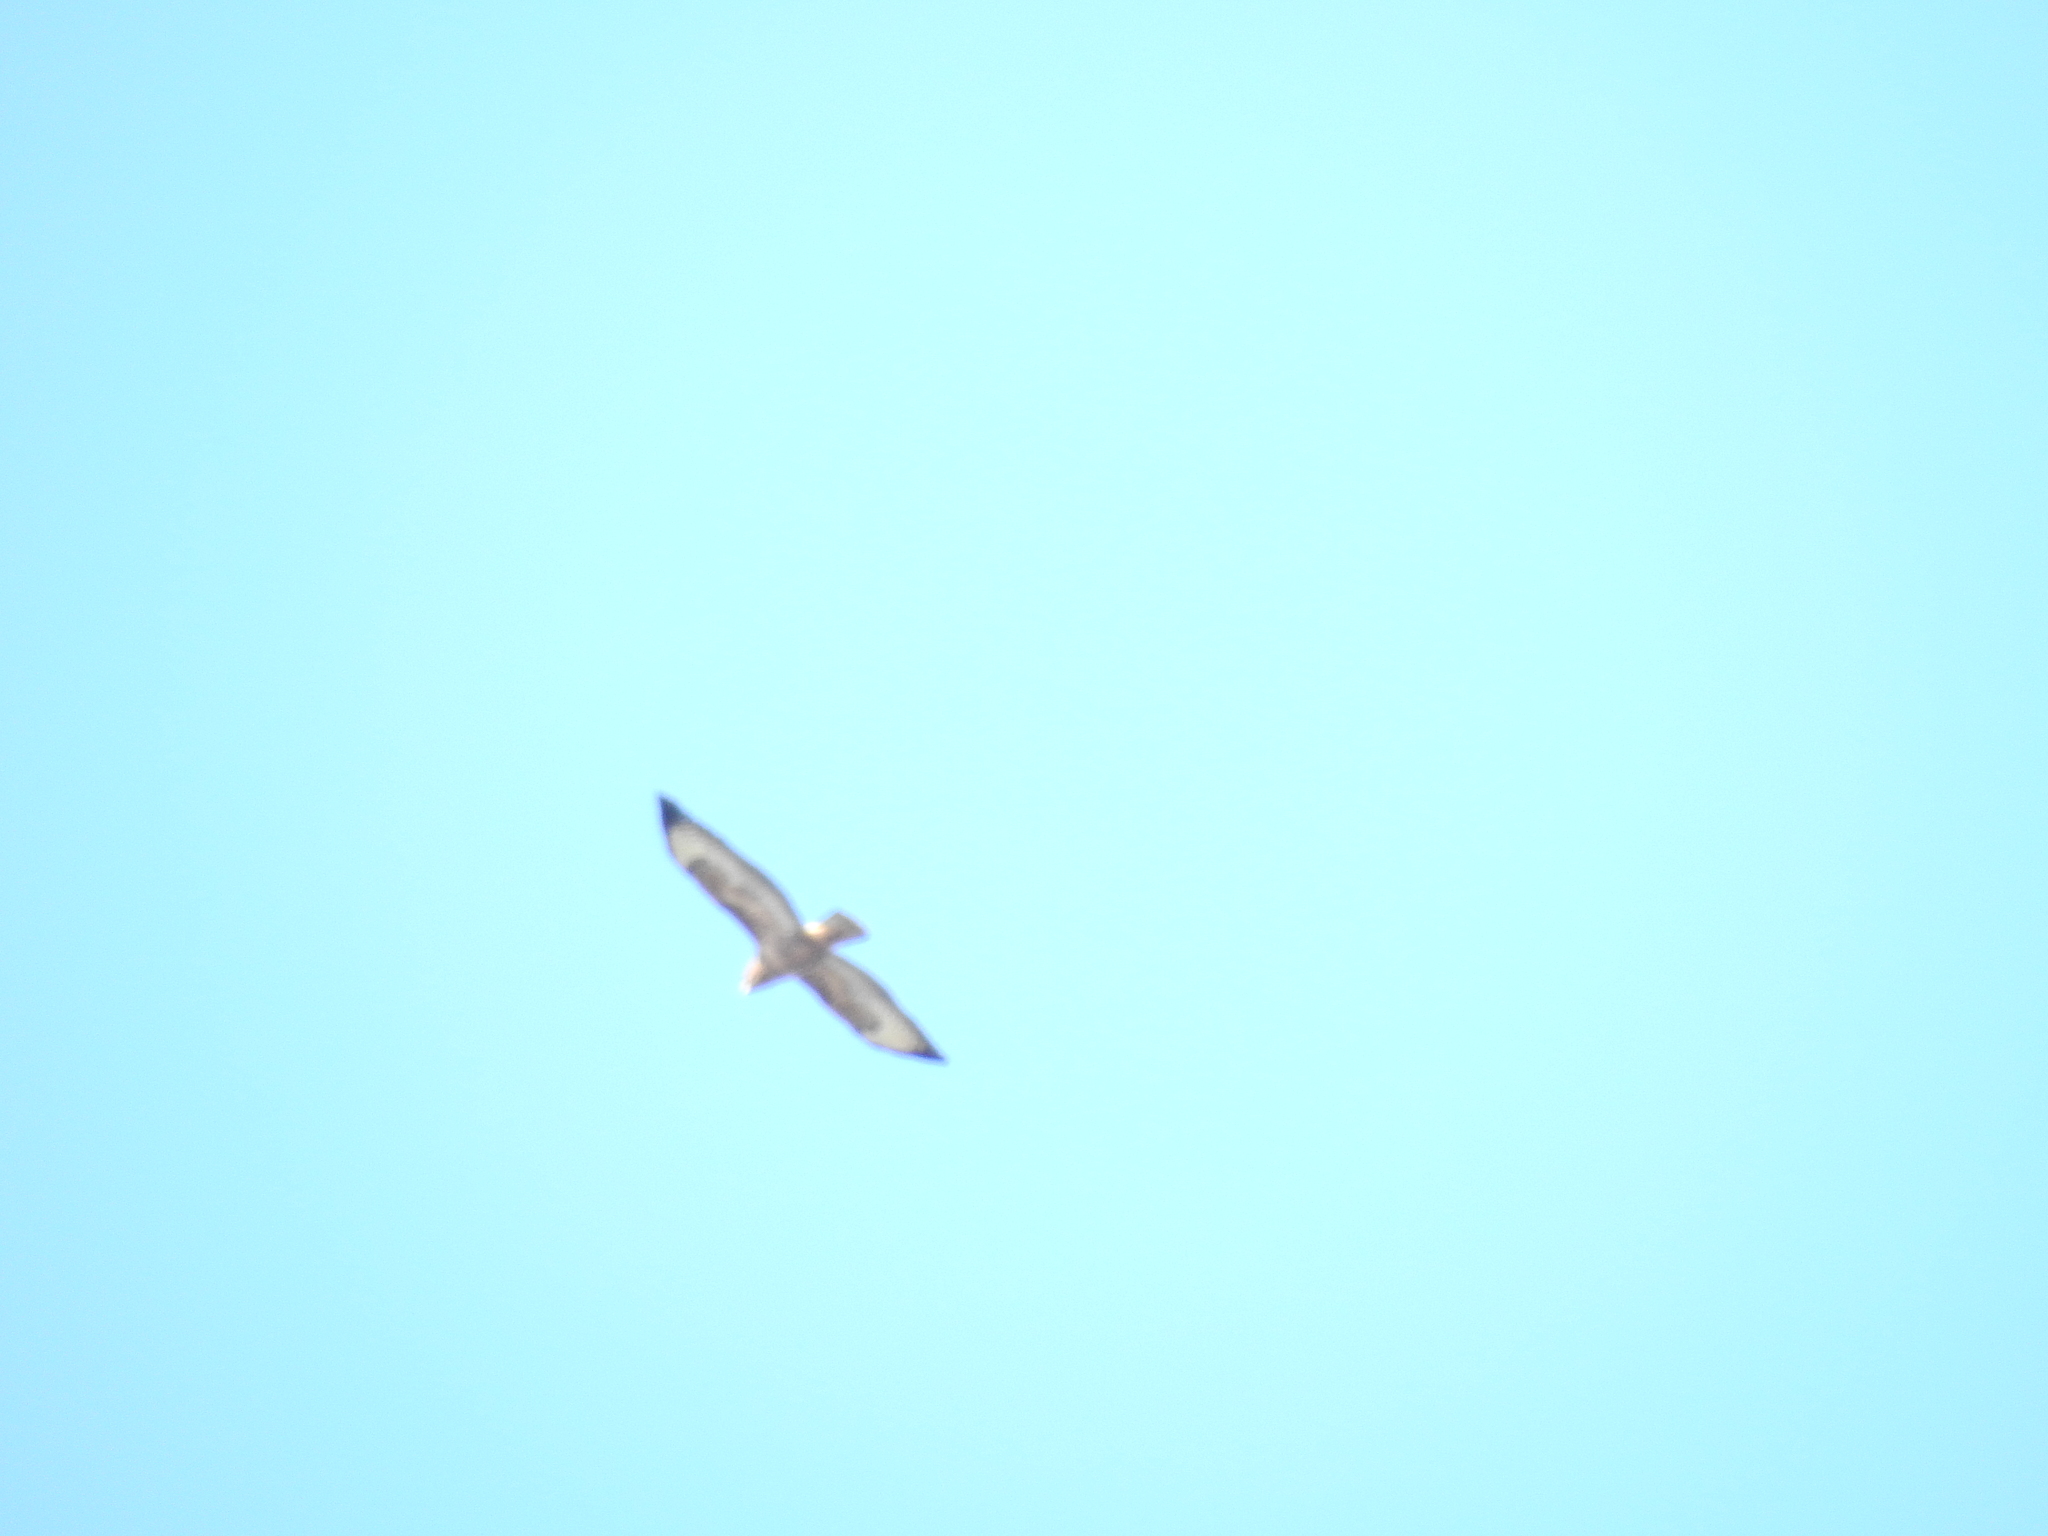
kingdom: Animalia
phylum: Chordata
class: Aves
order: Accipitriformes
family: Accipitridae
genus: Buteo
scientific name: Buteo buteo
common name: Common buzzard
